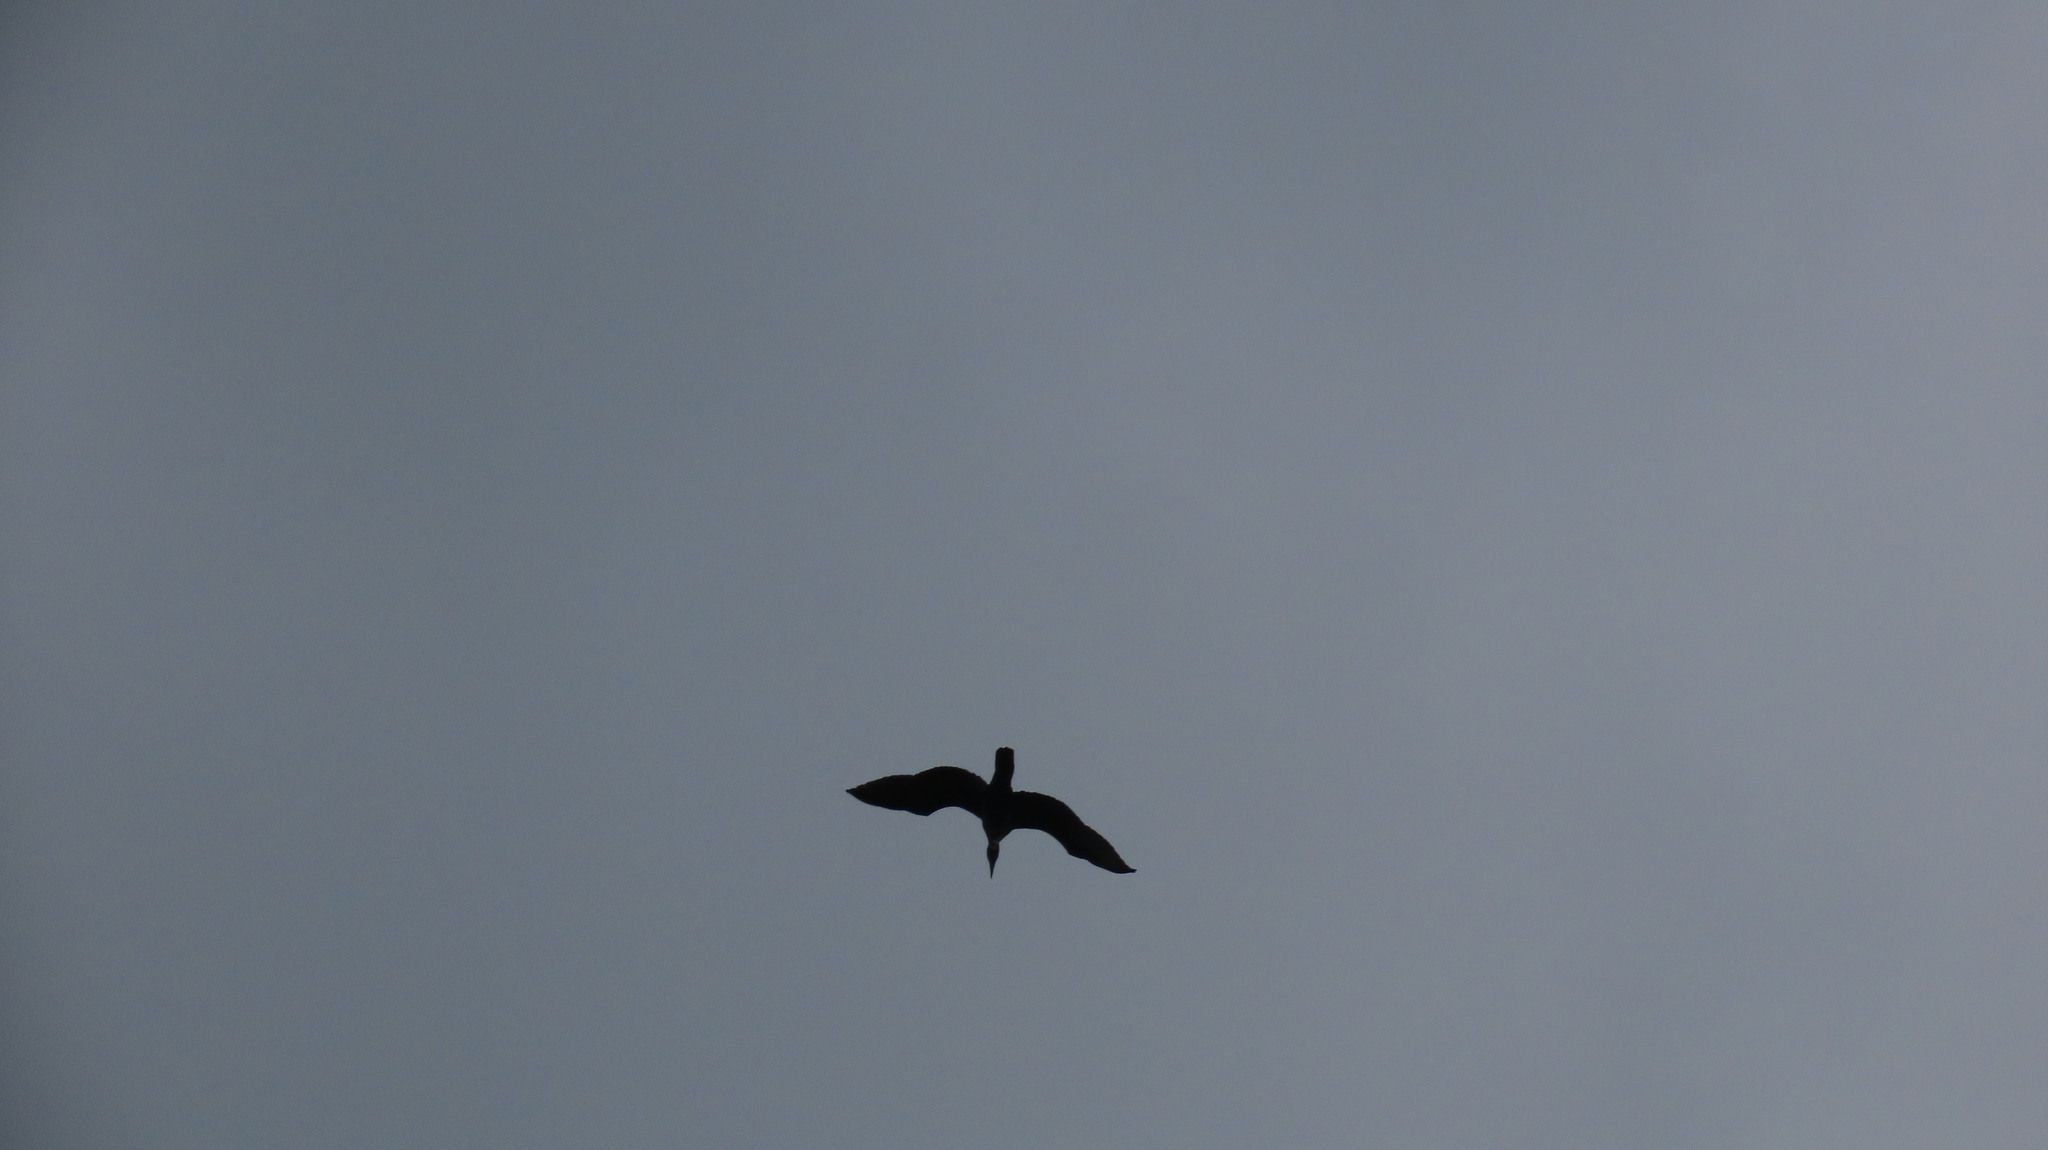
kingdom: Animalia
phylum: Chordata
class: Aves
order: Suliformes
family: Phalacrocoracidae
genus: Microcarbo
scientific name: Microcarbo niger
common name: Little cormorant
